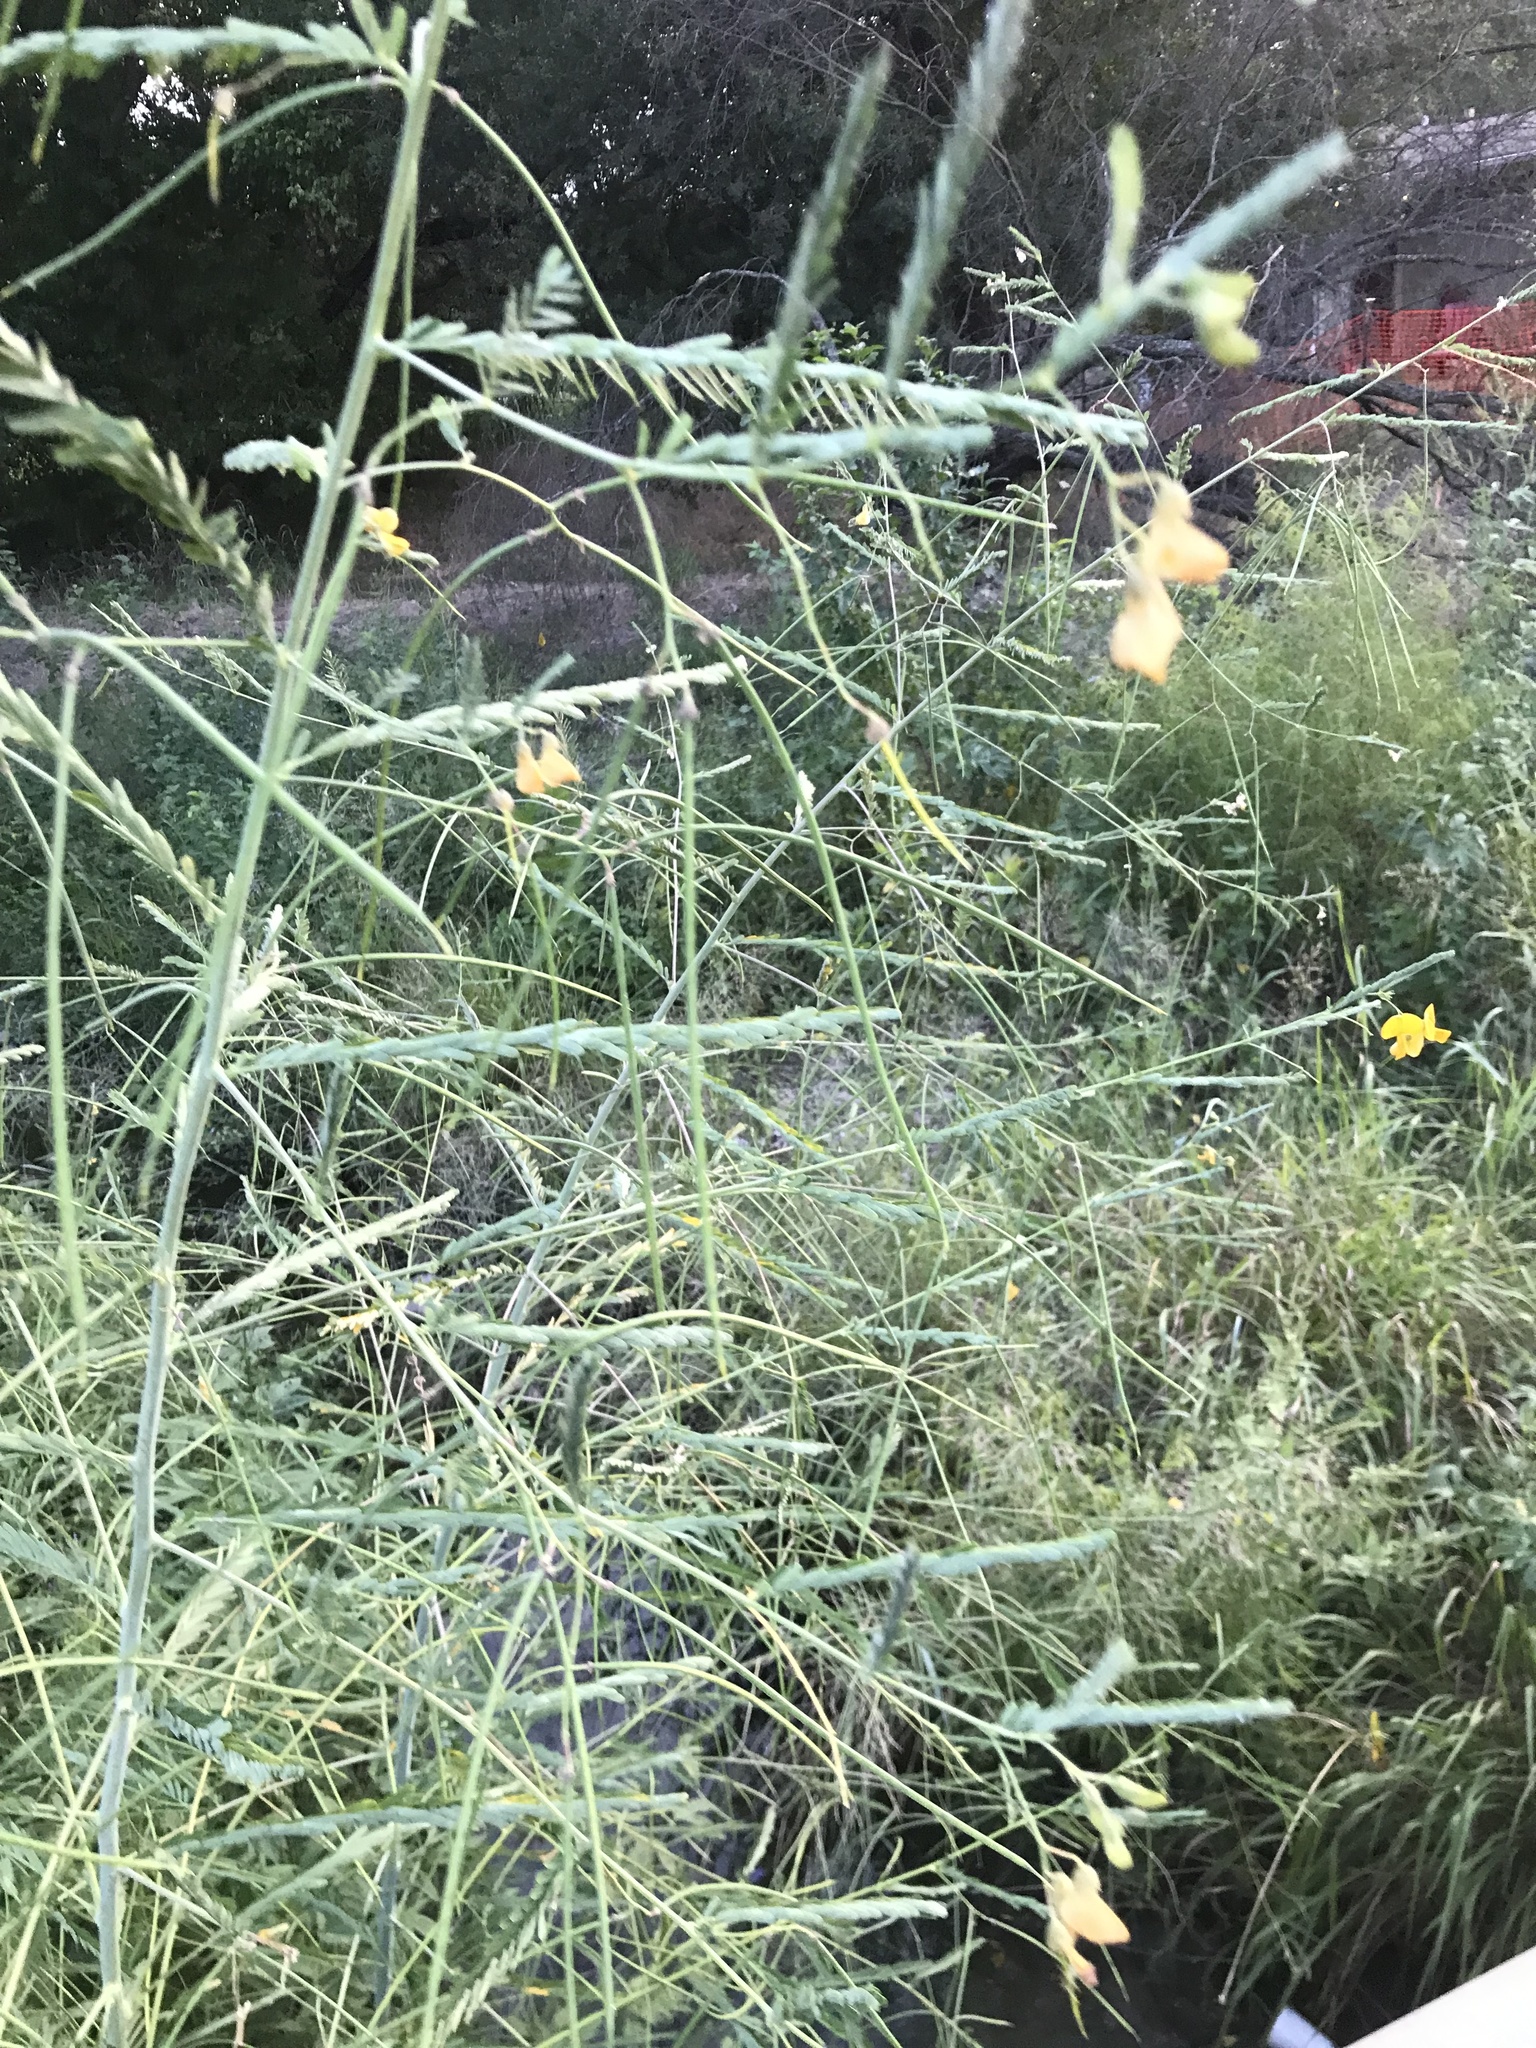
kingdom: Plantae
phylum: Tracheophyta
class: Magnoliopsida
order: Fabales
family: Fabaceae
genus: Sesbania
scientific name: Sesbania herbacea
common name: Bigpod sesbania
